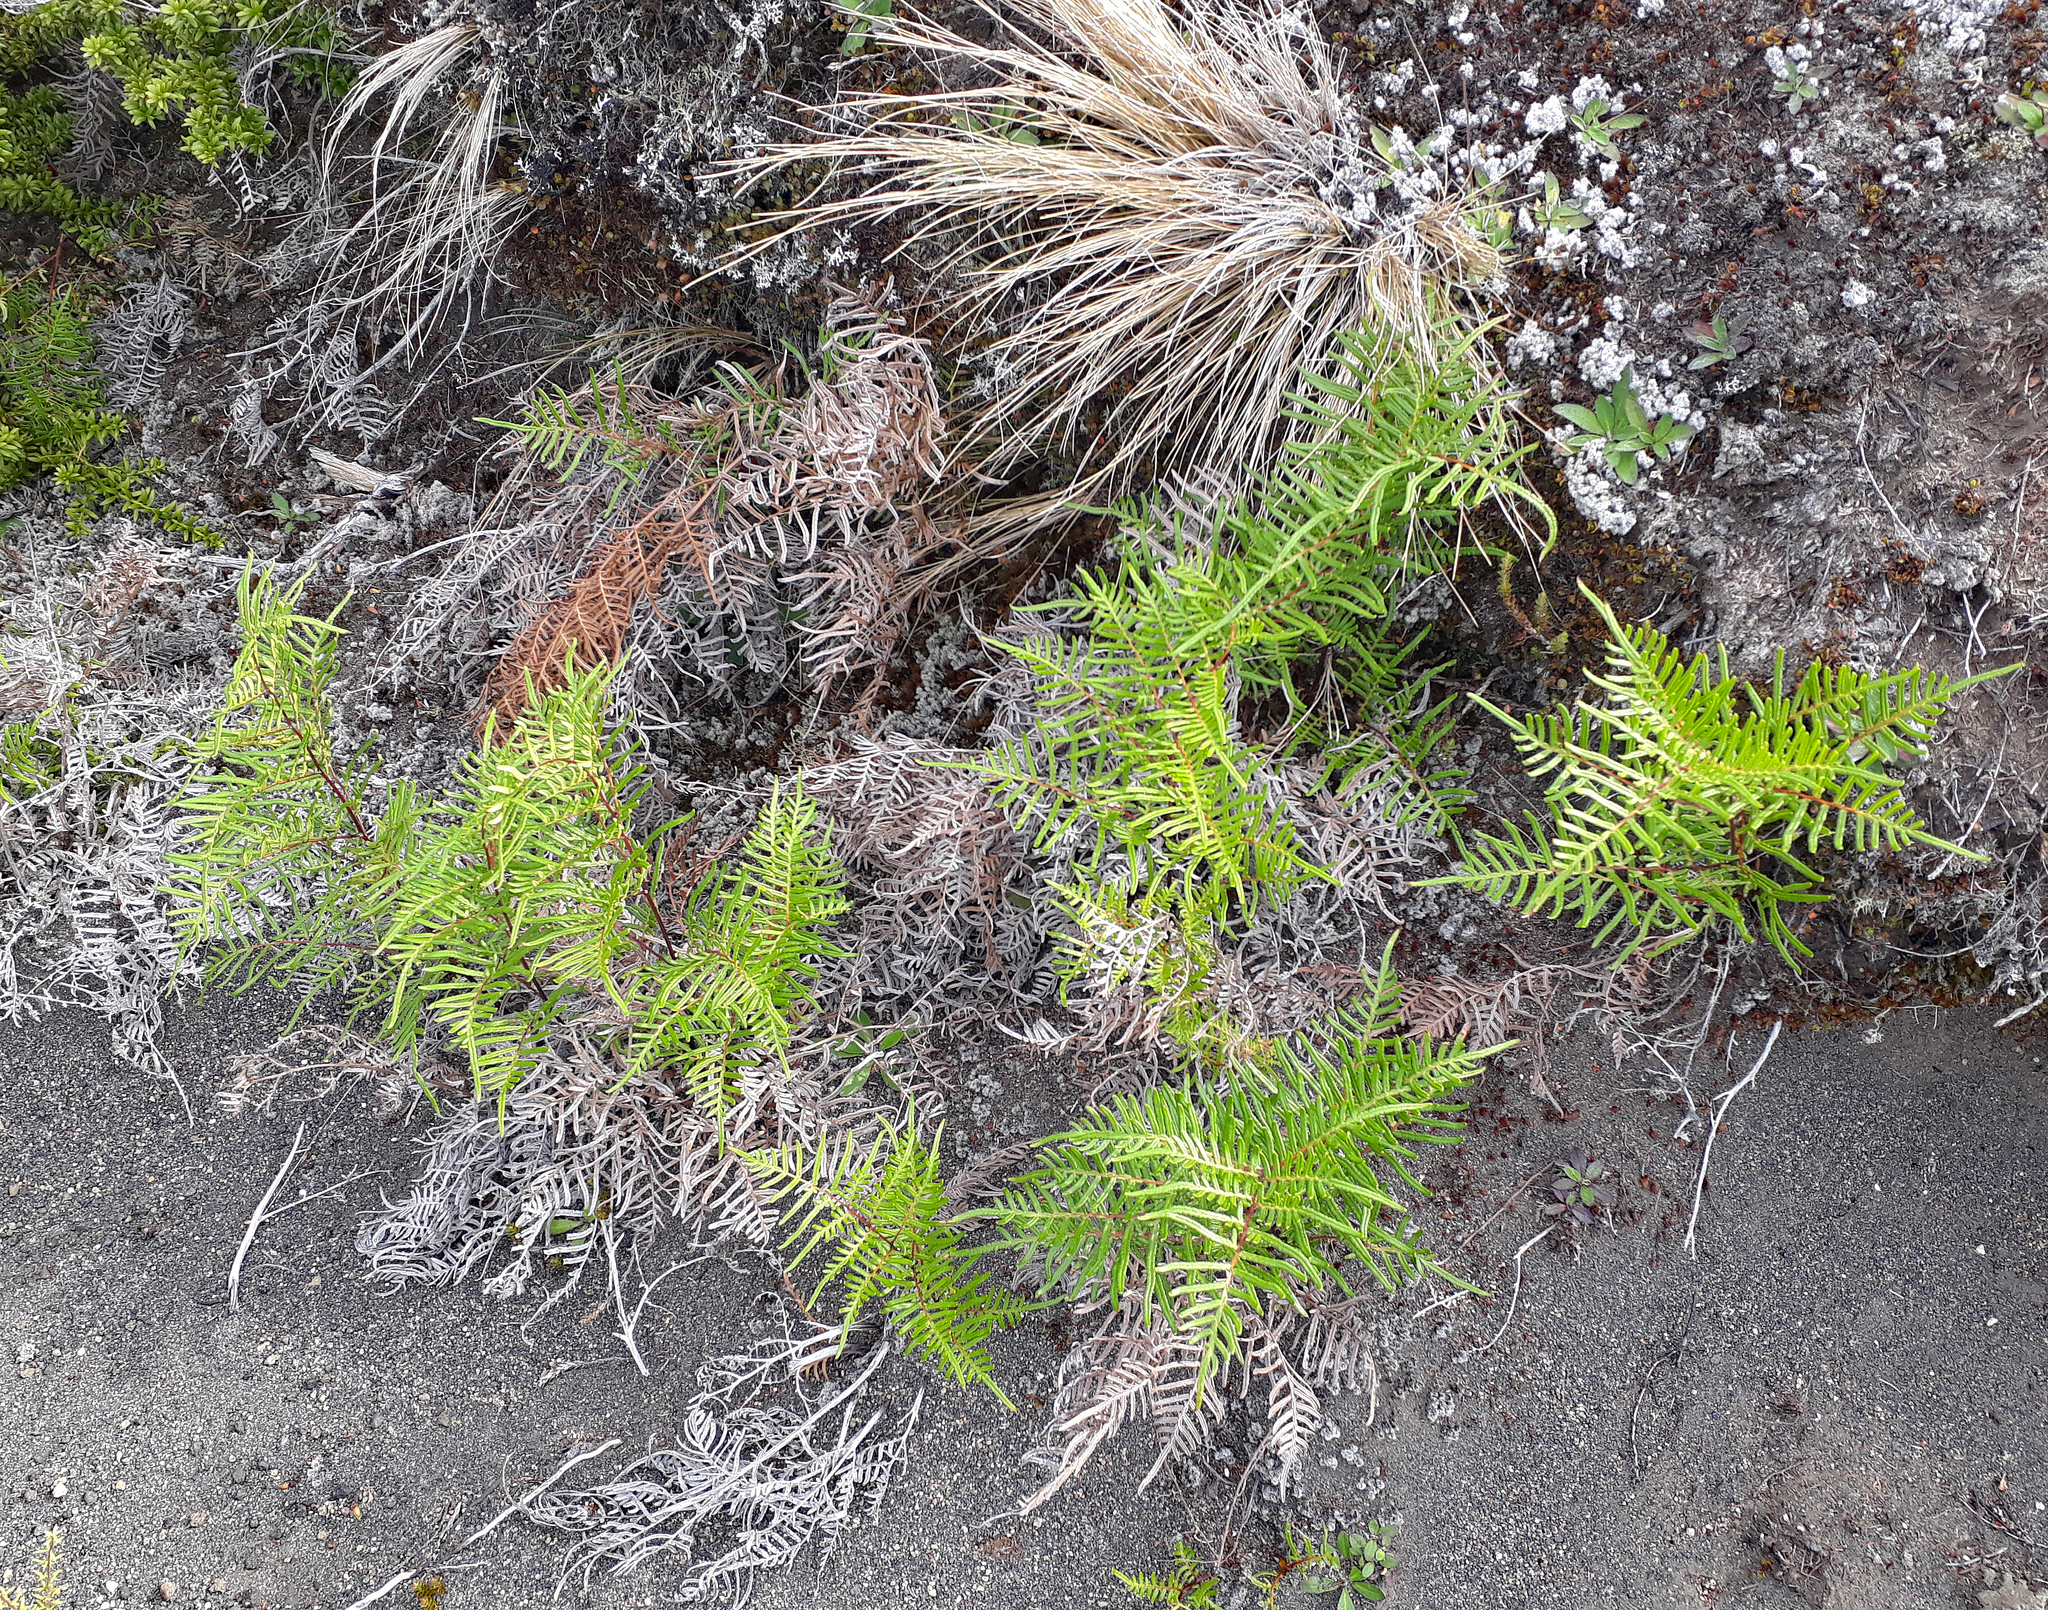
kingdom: Plantae
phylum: Tracheophyta
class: Polypodiopsida
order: Polypodiales
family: Dennstaedtiaceae
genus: Pteridium
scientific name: Pteridium esculentum
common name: Bracken fern
